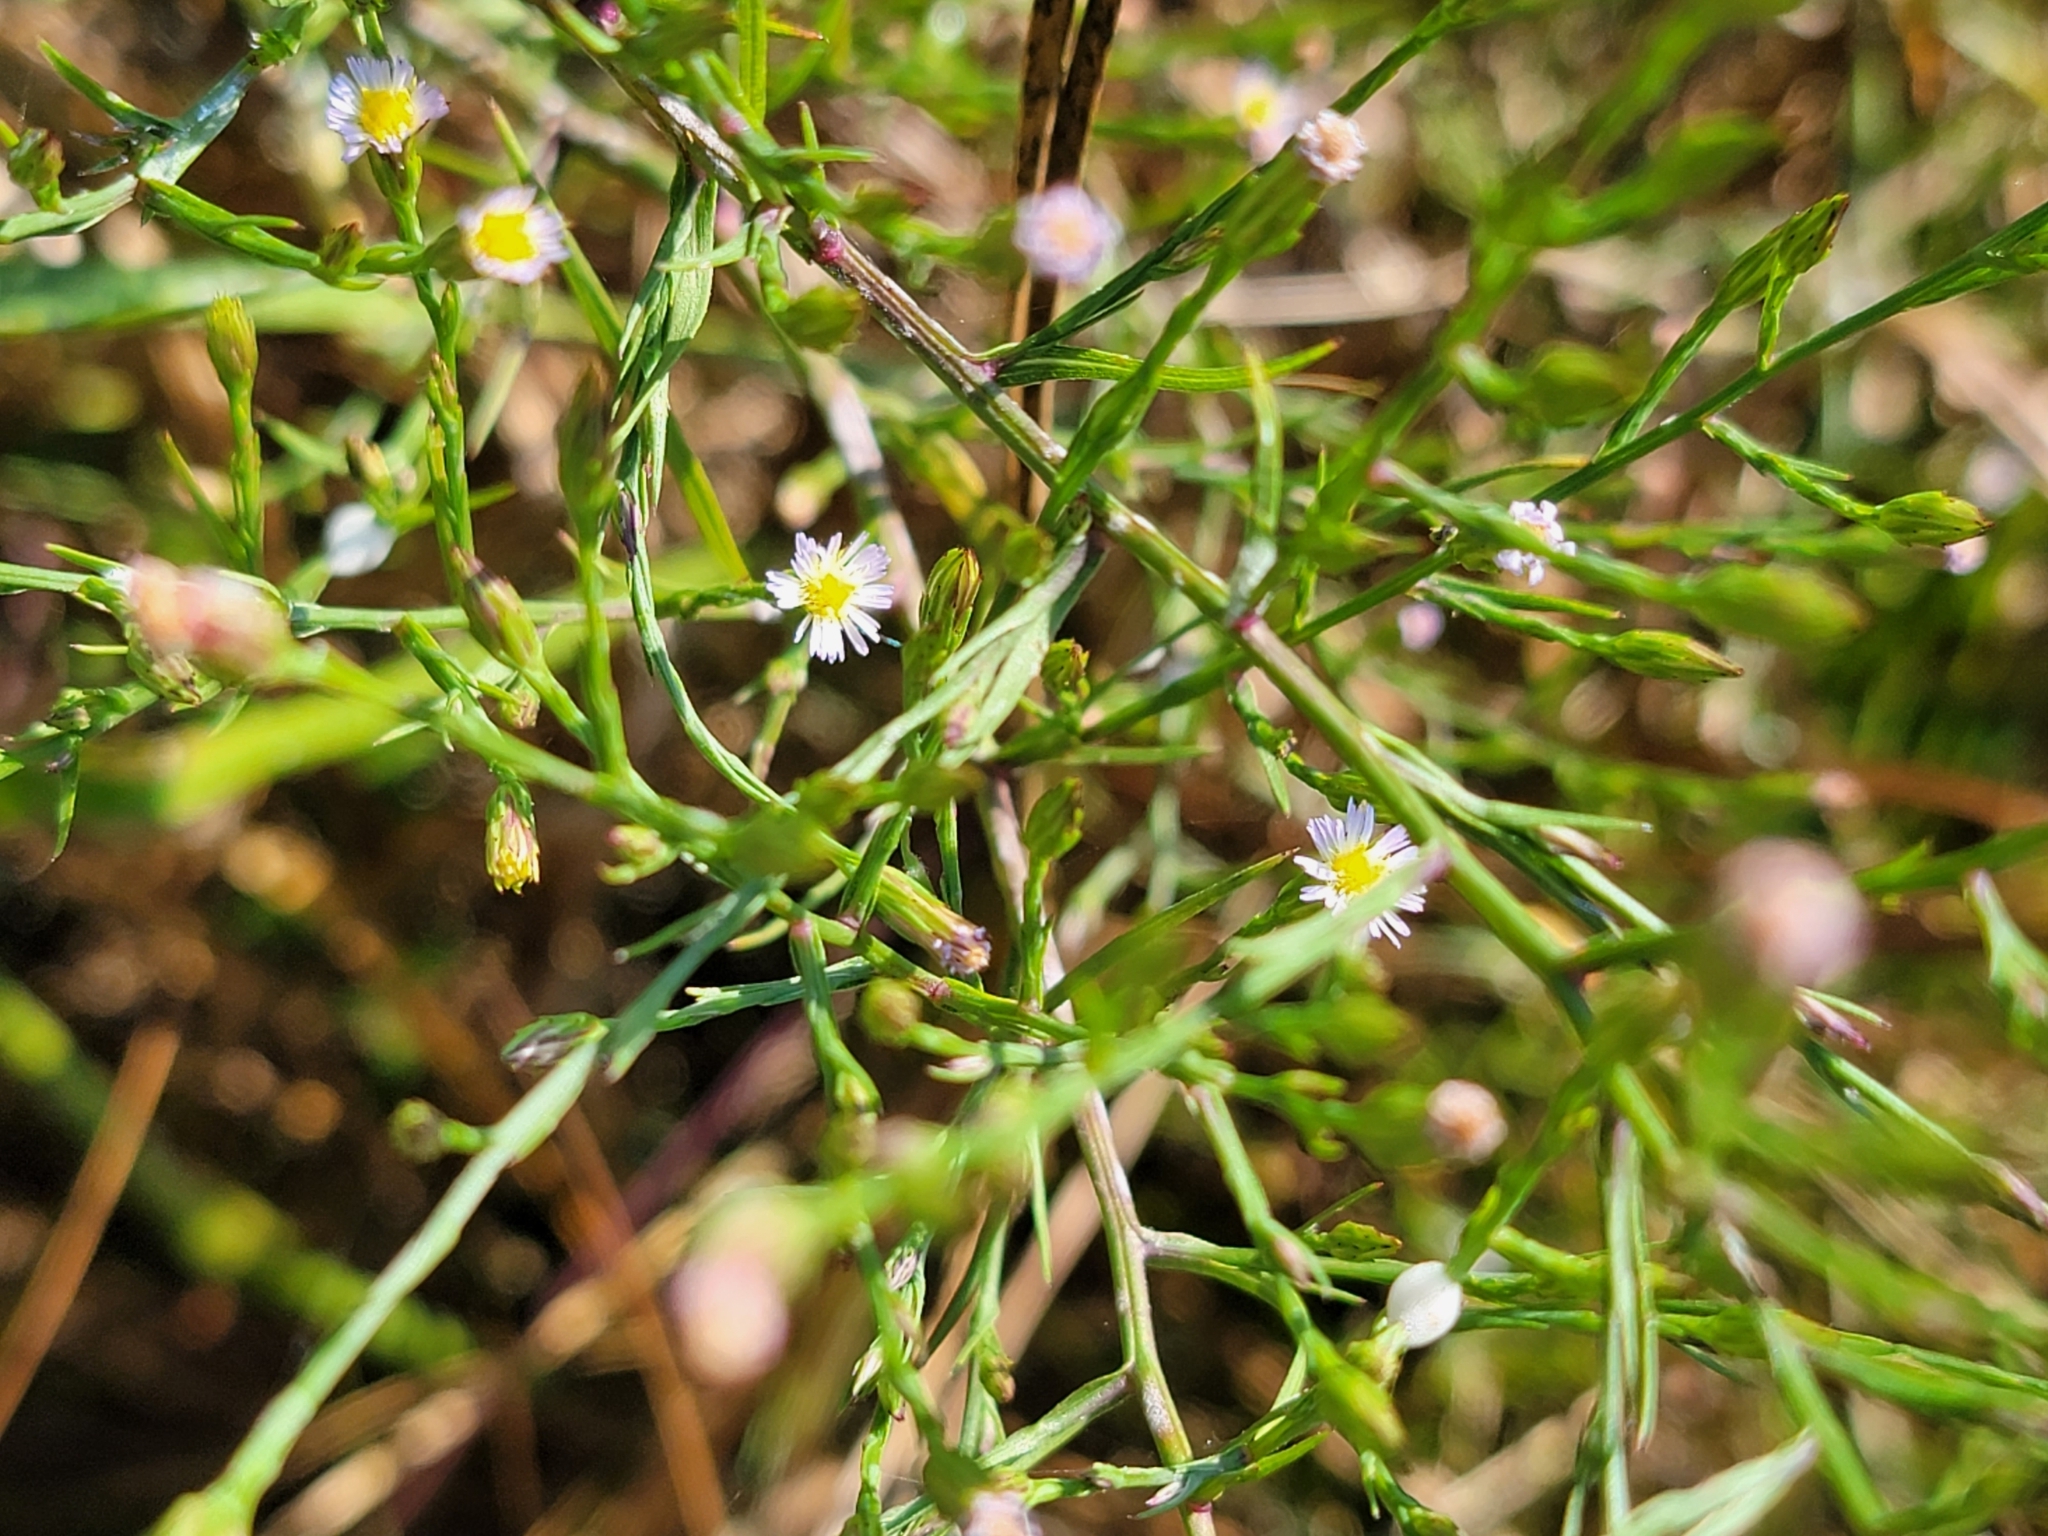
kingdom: Plantae
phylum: Tracheophyta
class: Magnoliopsida
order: Asterales
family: Asteraceae
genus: Symphyotrichum
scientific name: Symphyotrichum subulatum
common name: Annual saltmarsh aster
